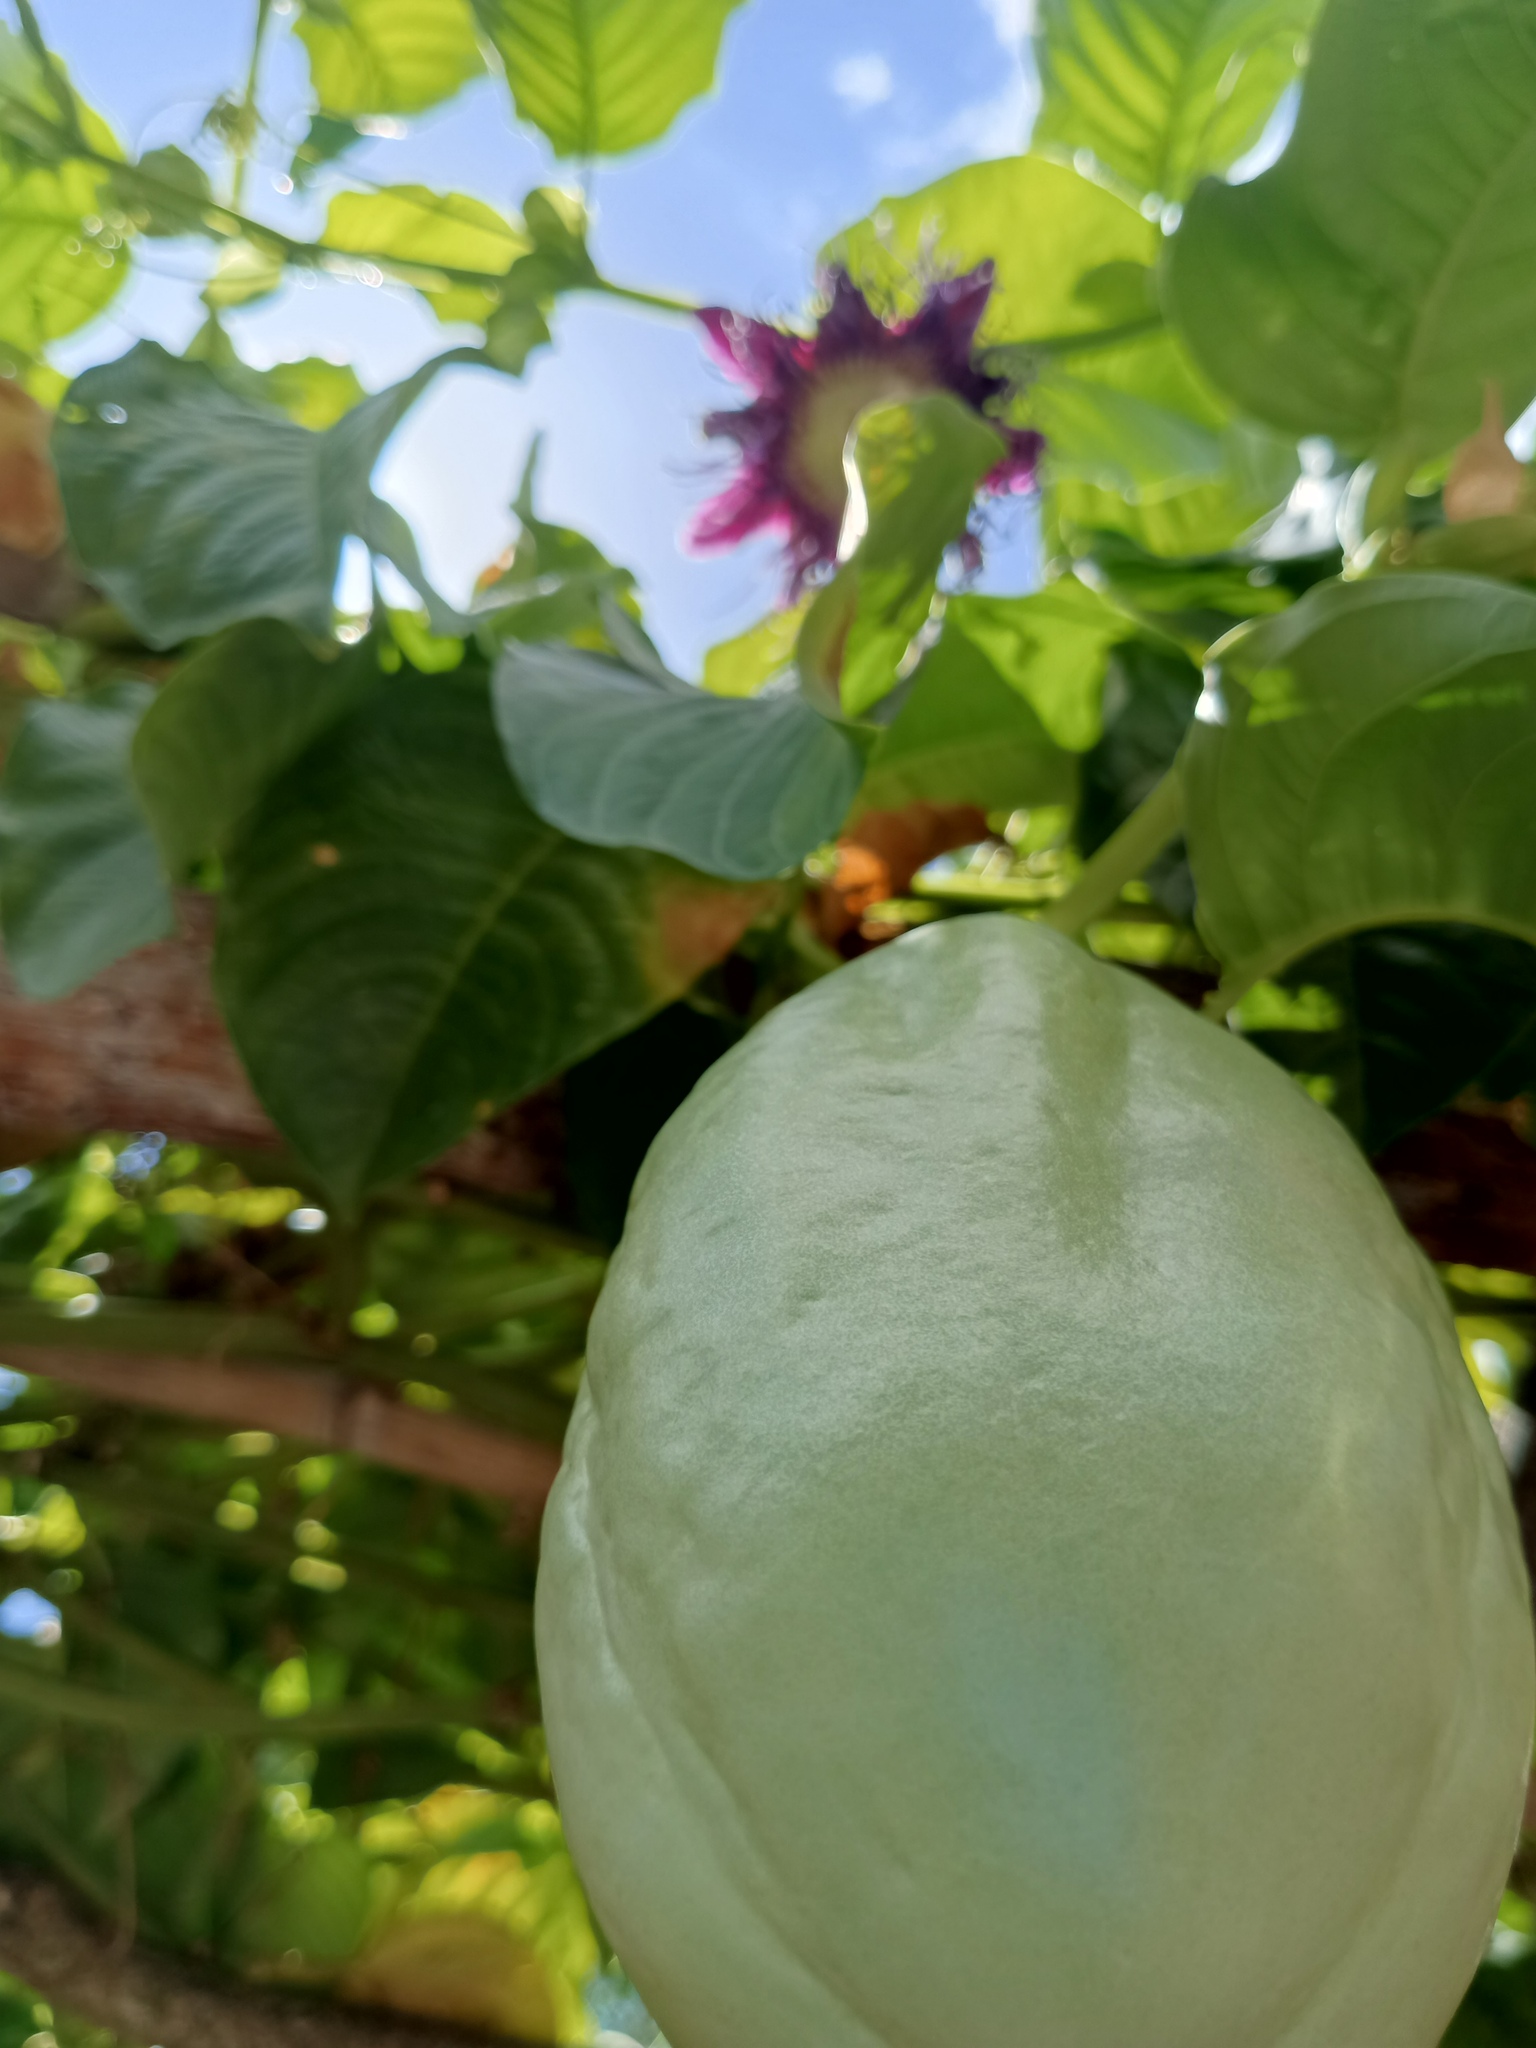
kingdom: Plantae
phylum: Tracheophyta
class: Magnoliopsida
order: Malpighiales
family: Passifloraceae
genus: Passiflora
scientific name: Passiflora quadrangularis
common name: Giant granadilla
